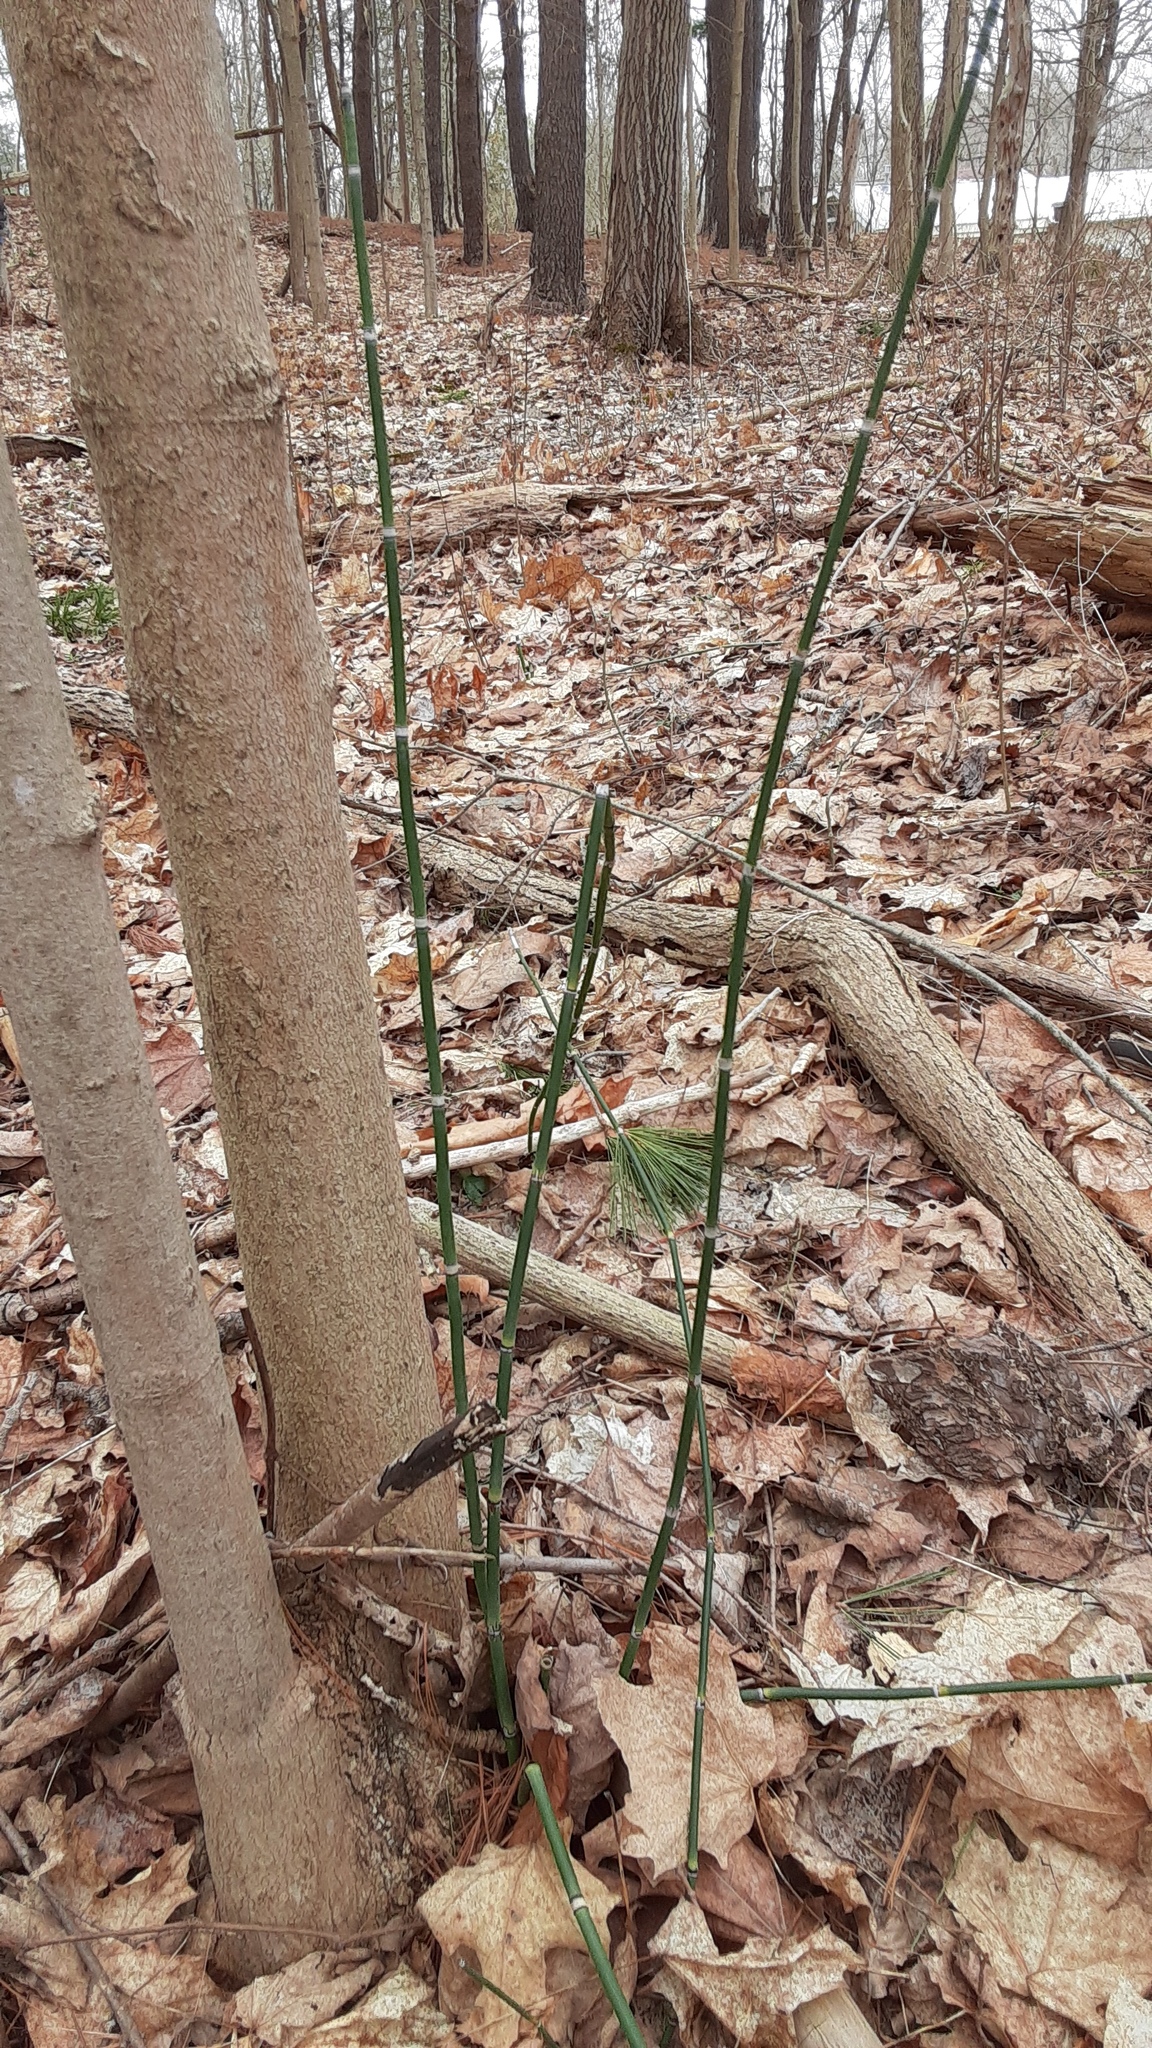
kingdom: Plantae
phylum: Tracheophyta
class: Polypodiopsida
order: Equisetales
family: Equisetaceae
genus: Equisetum
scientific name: Equisetum praealtum
